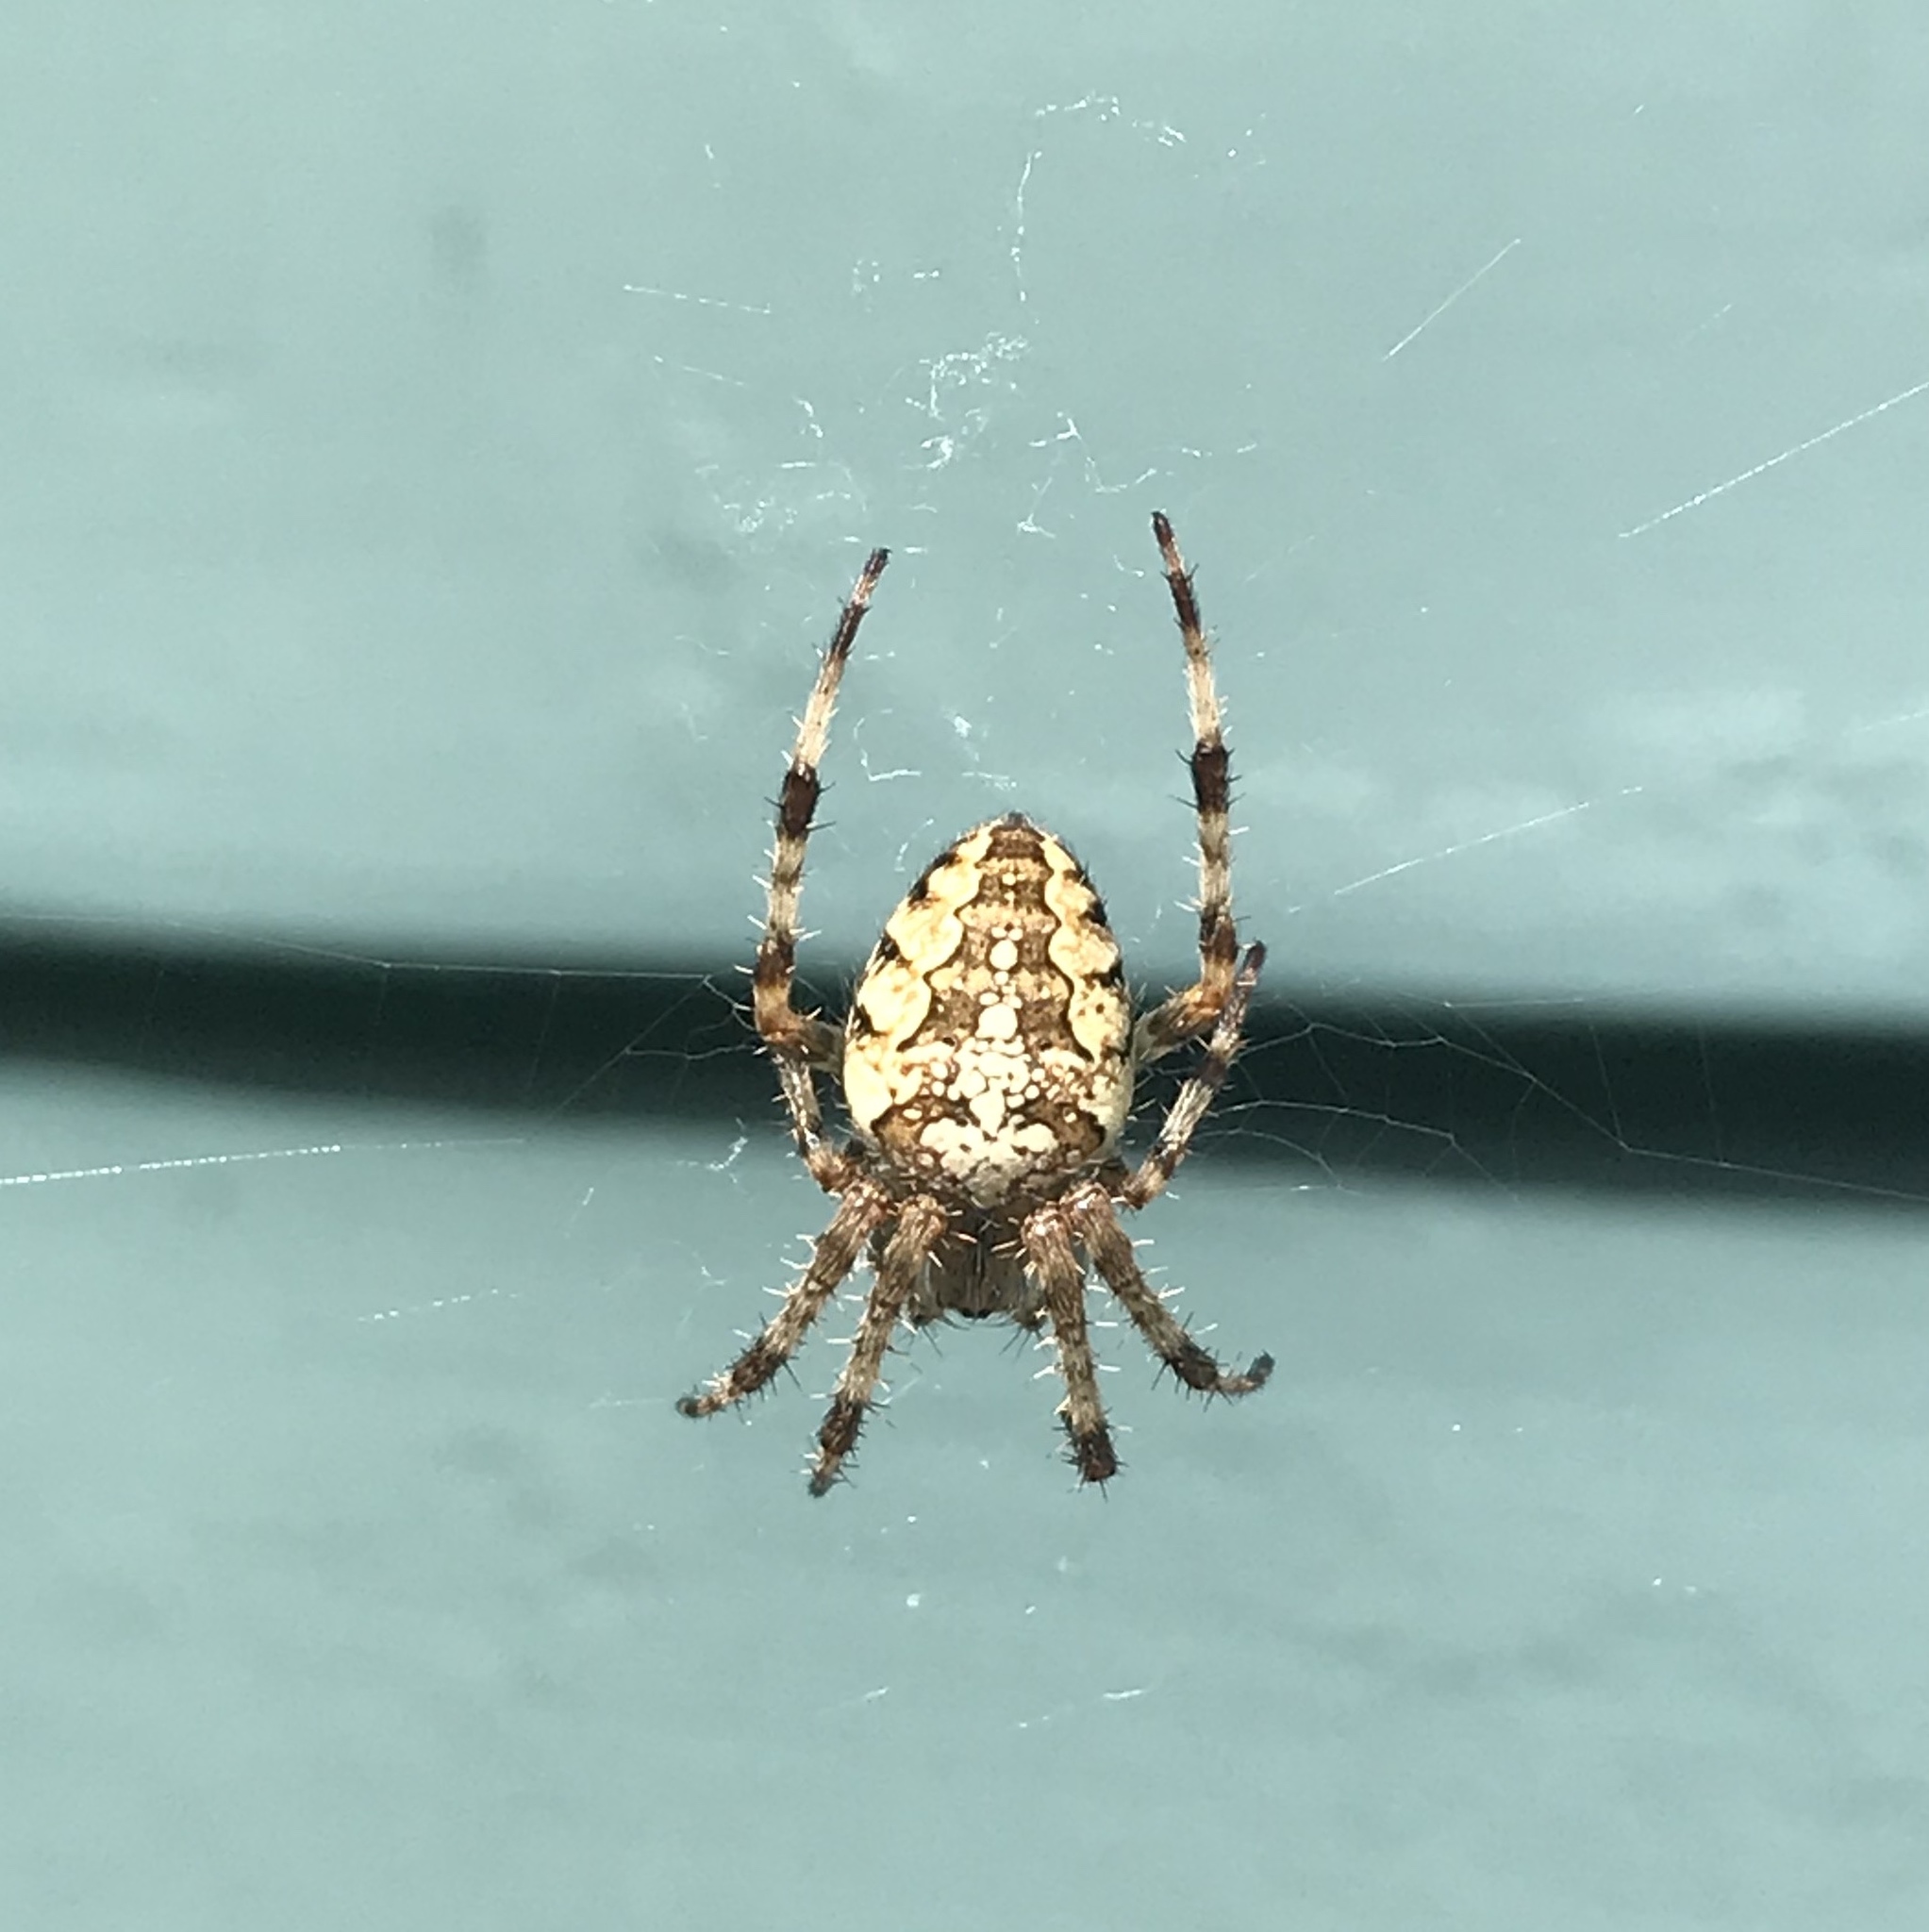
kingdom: Animalia
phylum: Arthropoda
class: Arachnida
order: Araneae
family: Araneidae
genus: Araneus
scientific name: Araneus diadematus
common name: Cross orbweaver
